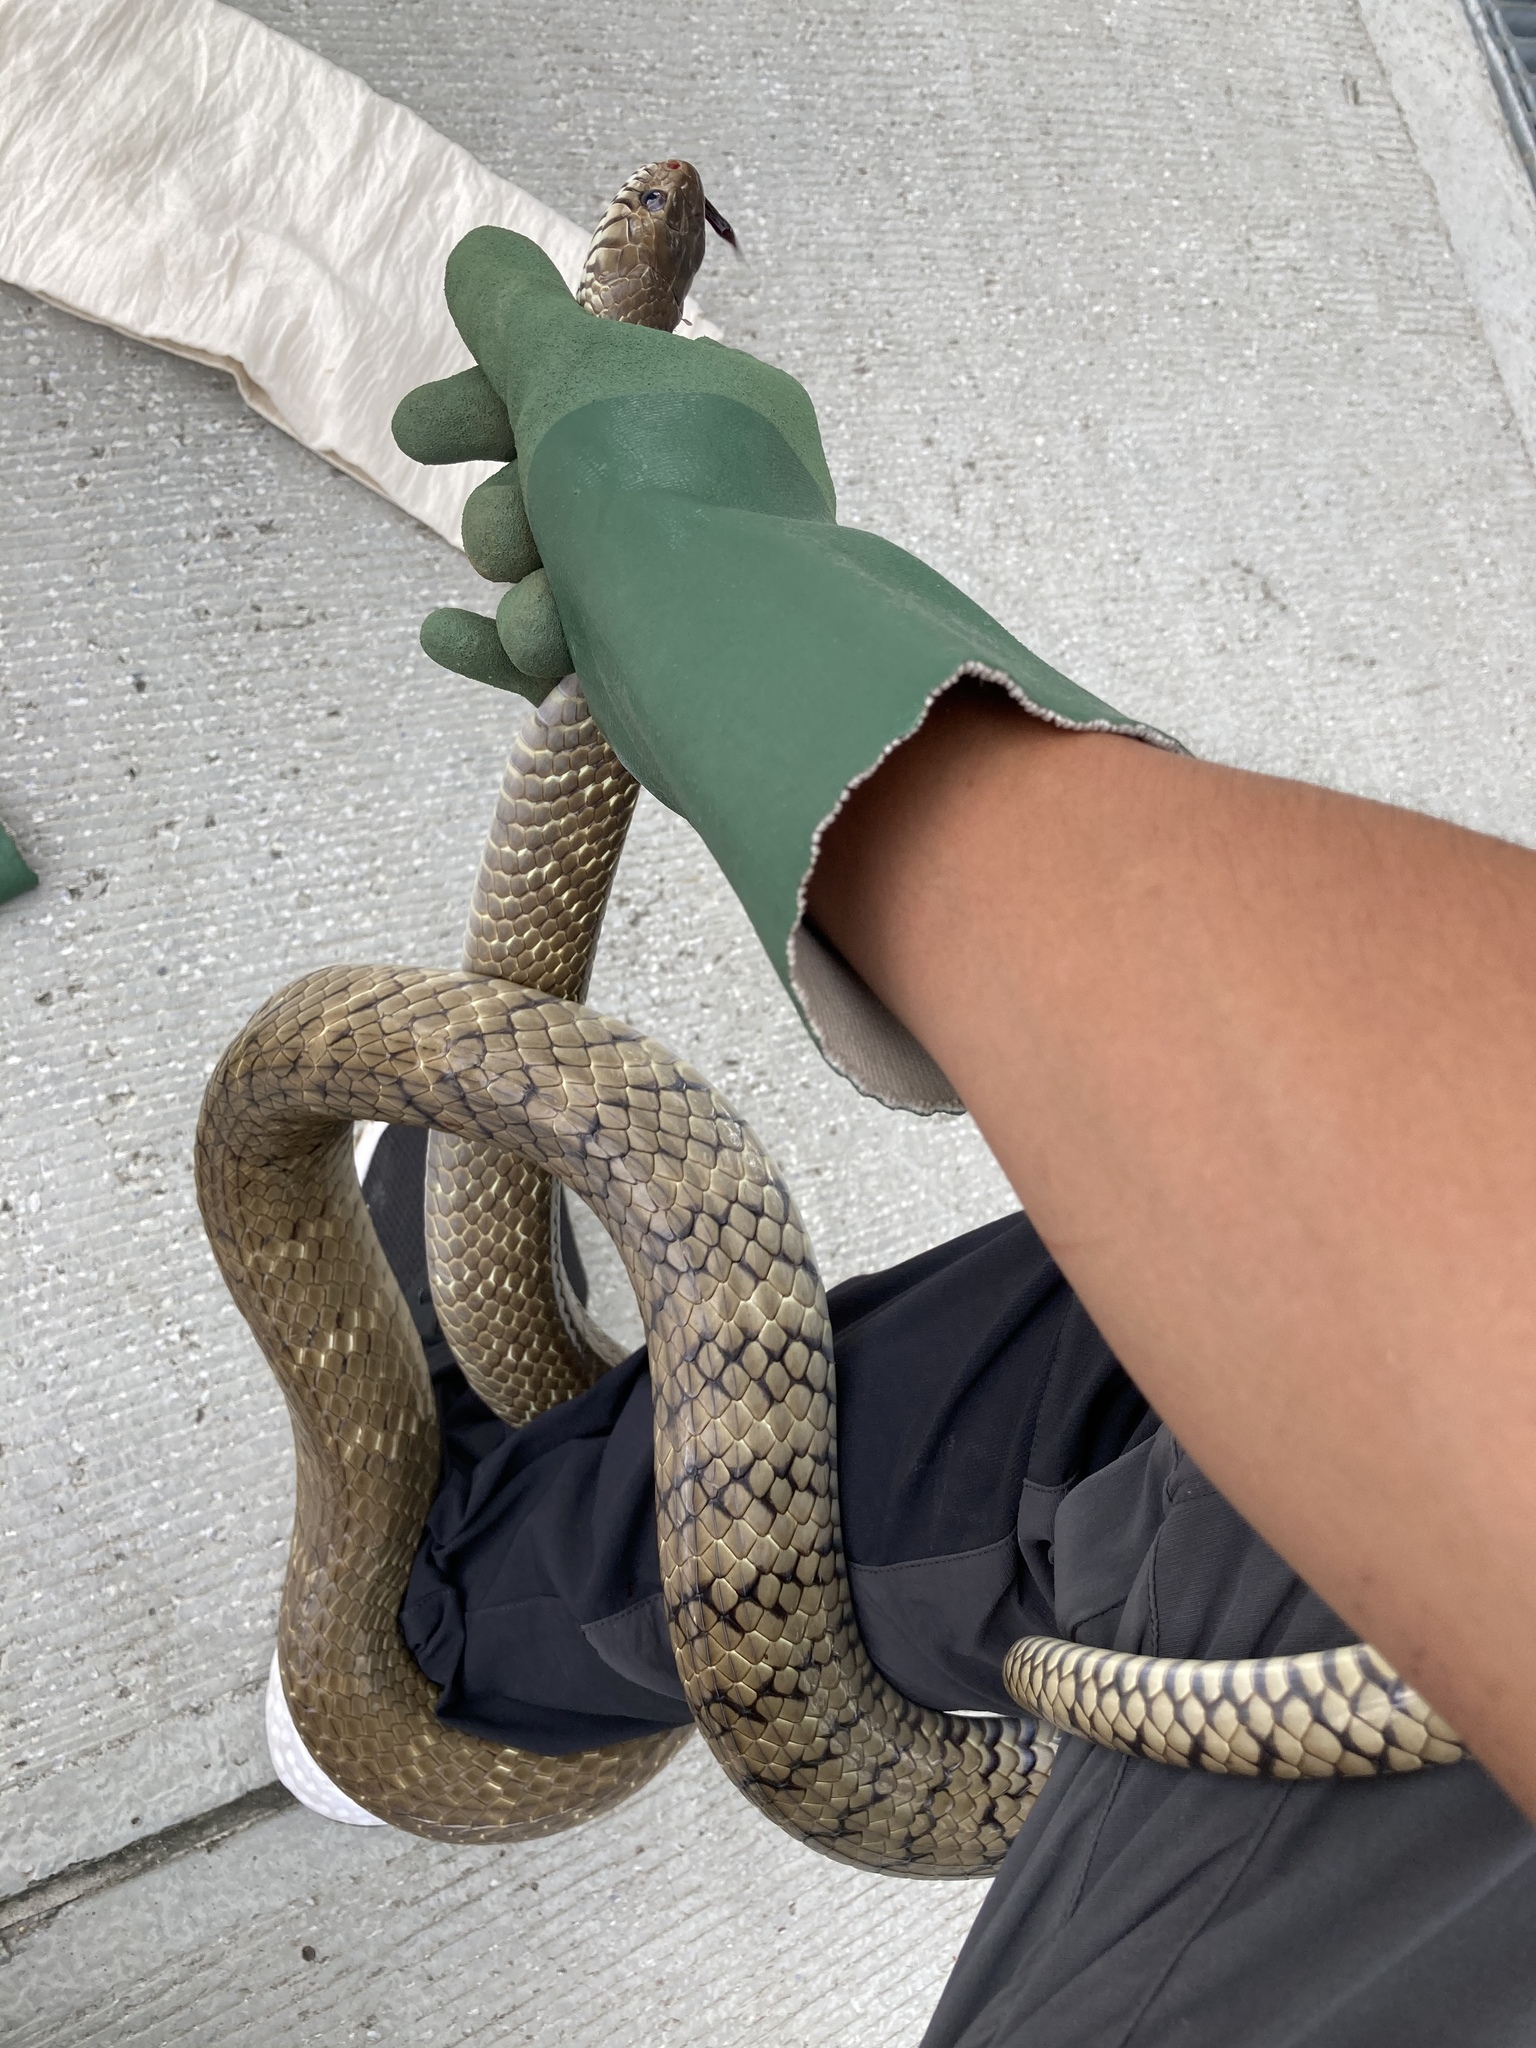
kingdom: Animalia
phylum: Chordata
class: Squamata
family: Colubridae
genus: Ptyas
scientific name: Ptyas mucosa
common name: Oriental ratsnake
